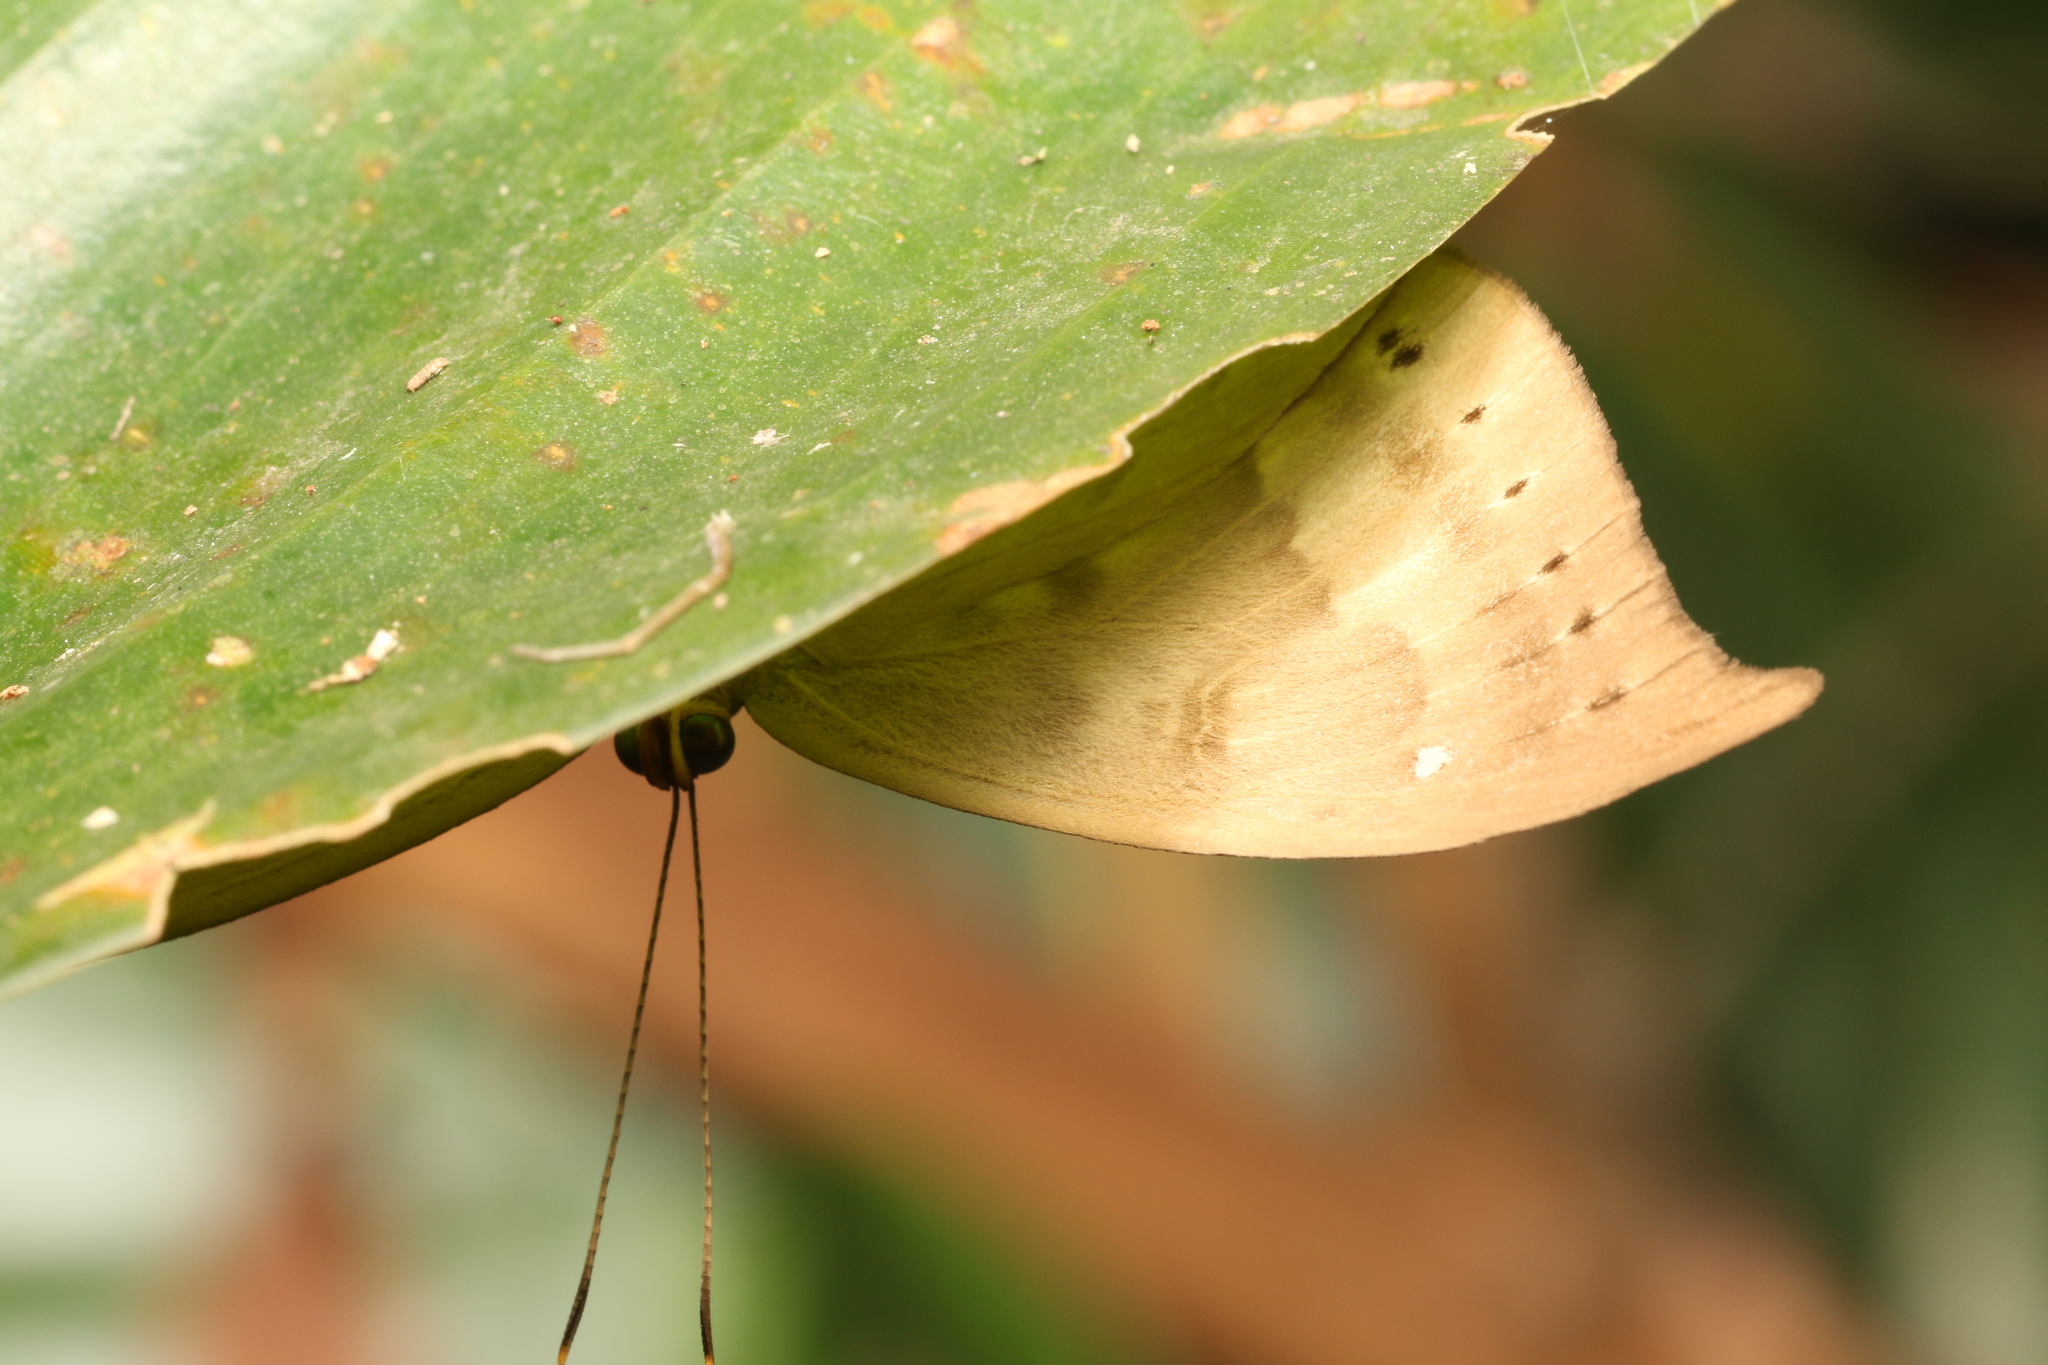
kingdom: Animalia
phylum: Cnidaria
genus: Eurybia
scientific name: Eurybia pergaea
